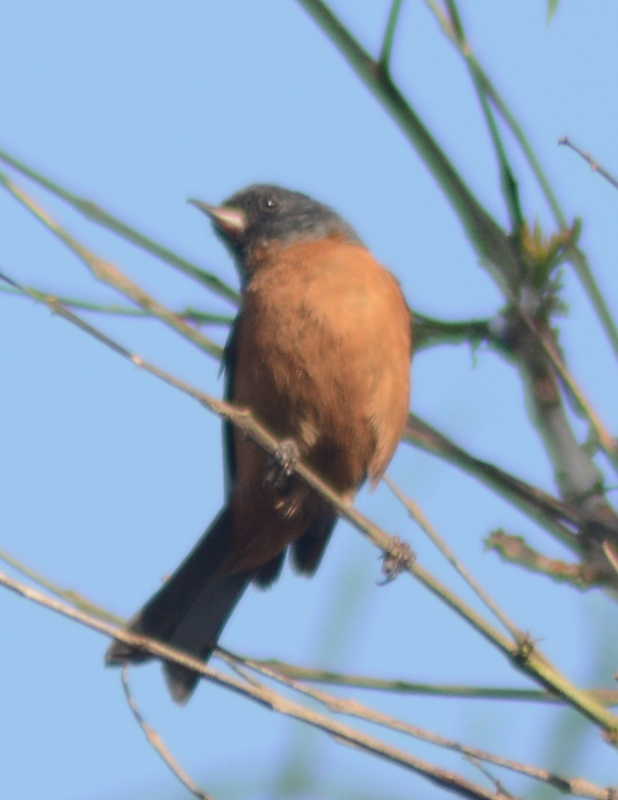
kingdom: Animalia
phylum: Chordata
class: Aves
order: Passeriformes
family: Thraupidae
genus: Diglossa
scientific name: Diglossa baritula
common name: Cinnamon-bellied flowerpiercer
